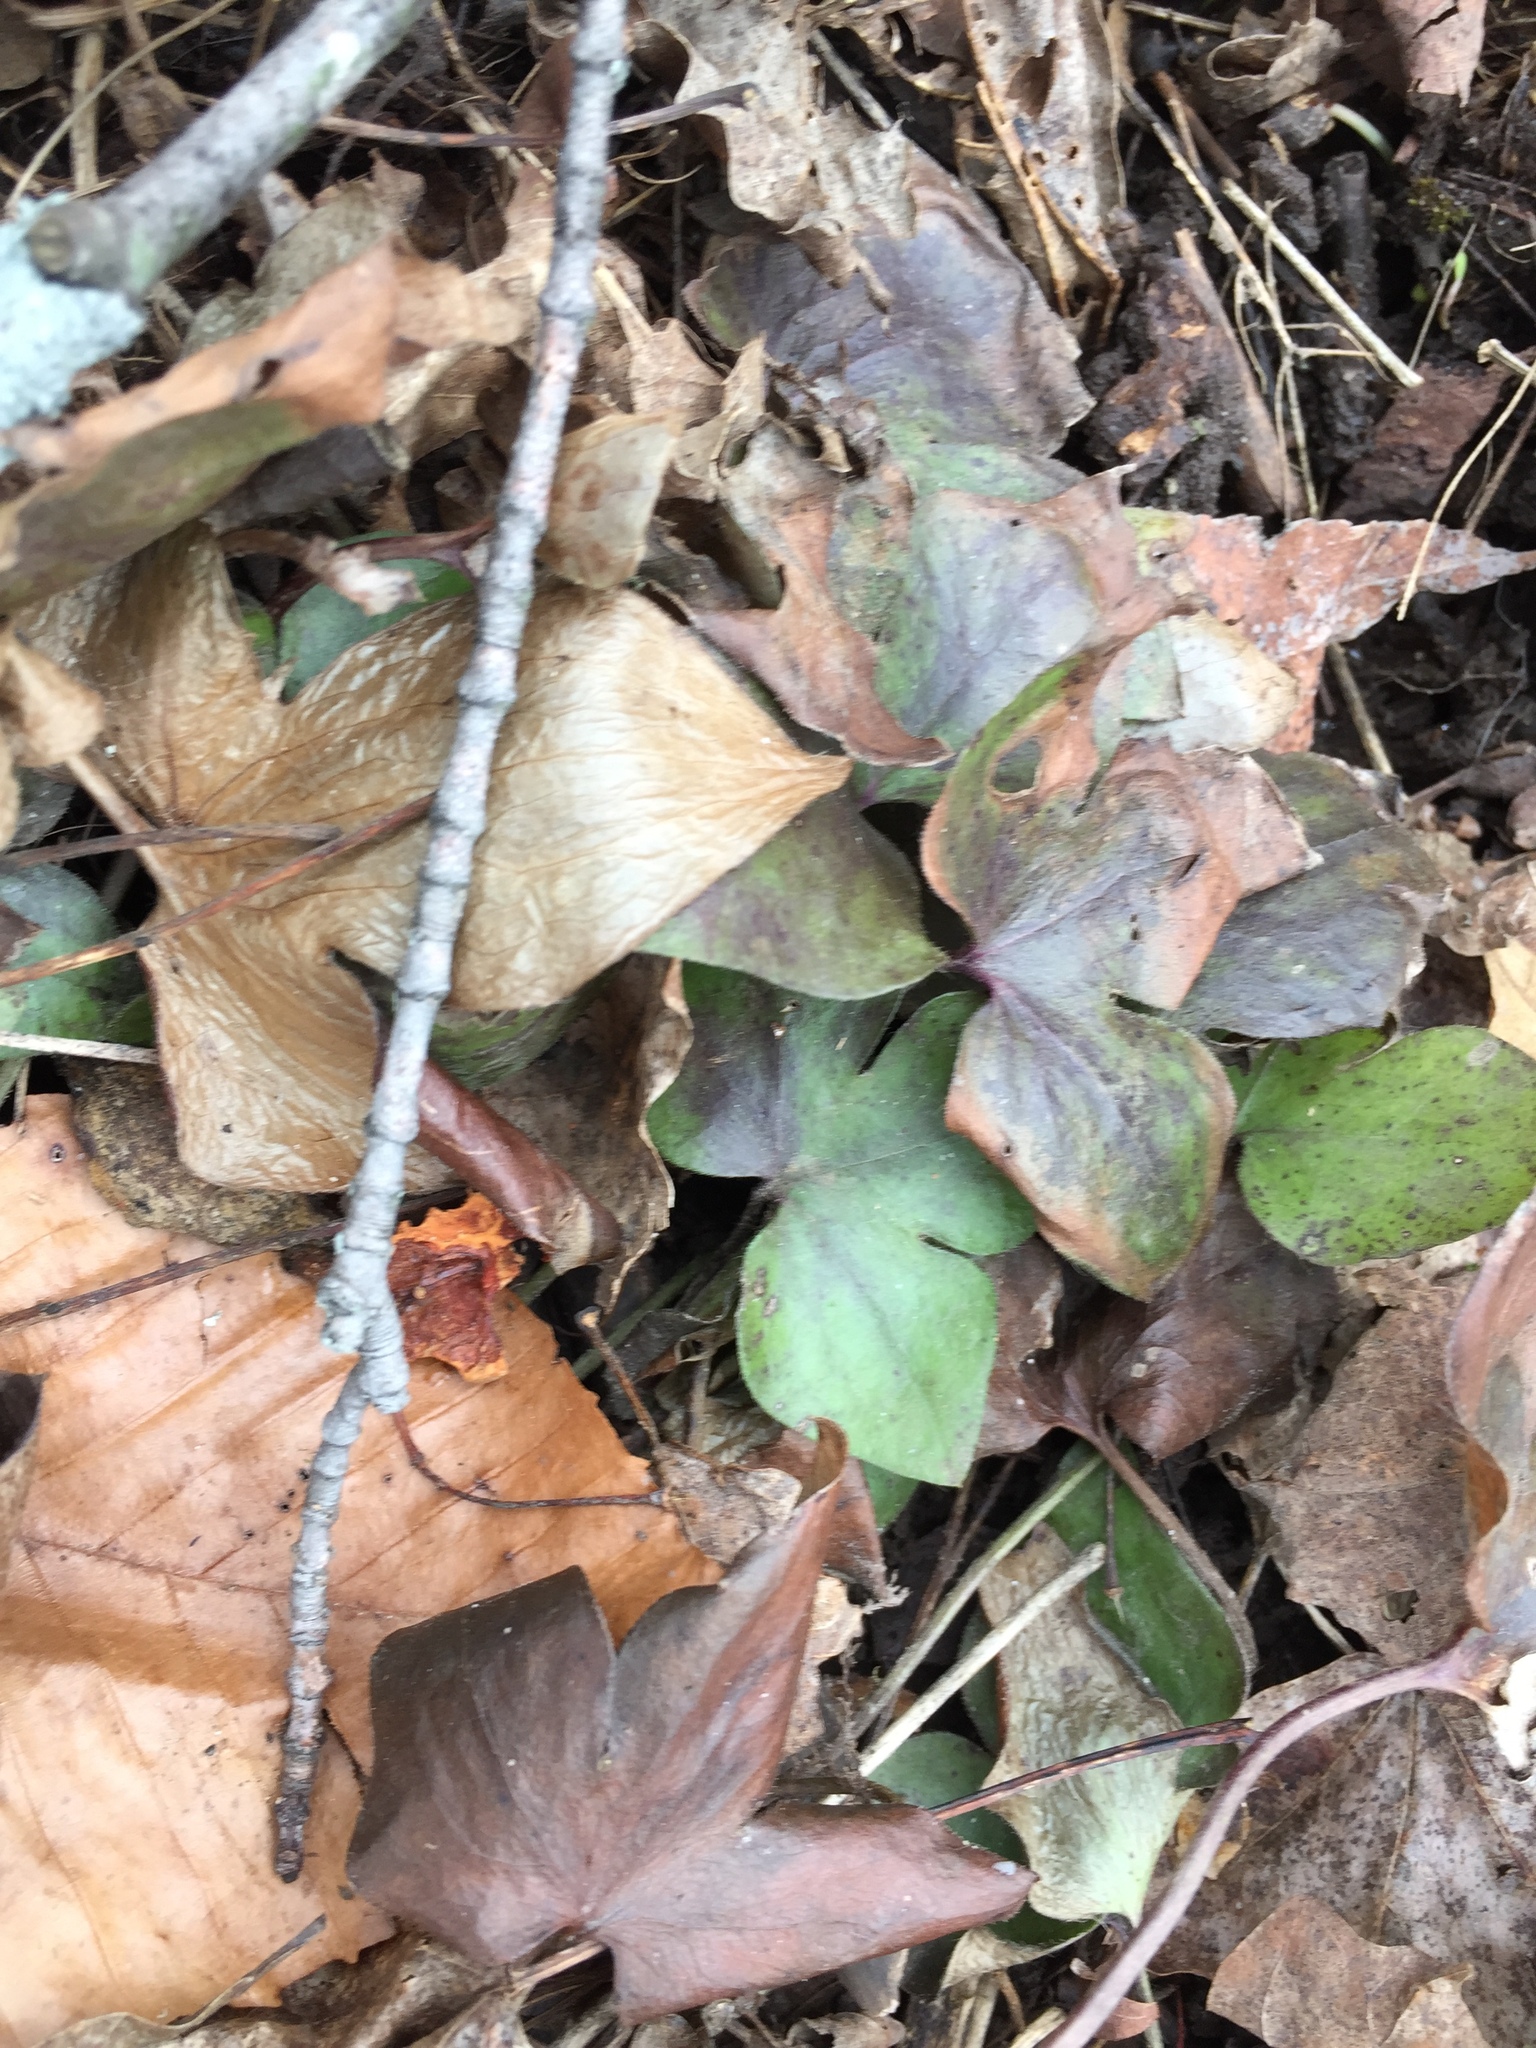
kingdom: Plantae
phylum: Tracheophyta
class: Magnoliopsida
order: Ranunculales
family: Ranunculaceae
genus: Hepatica
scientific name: Hepatica acutiloba
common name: Sharp-lobed hepatica
